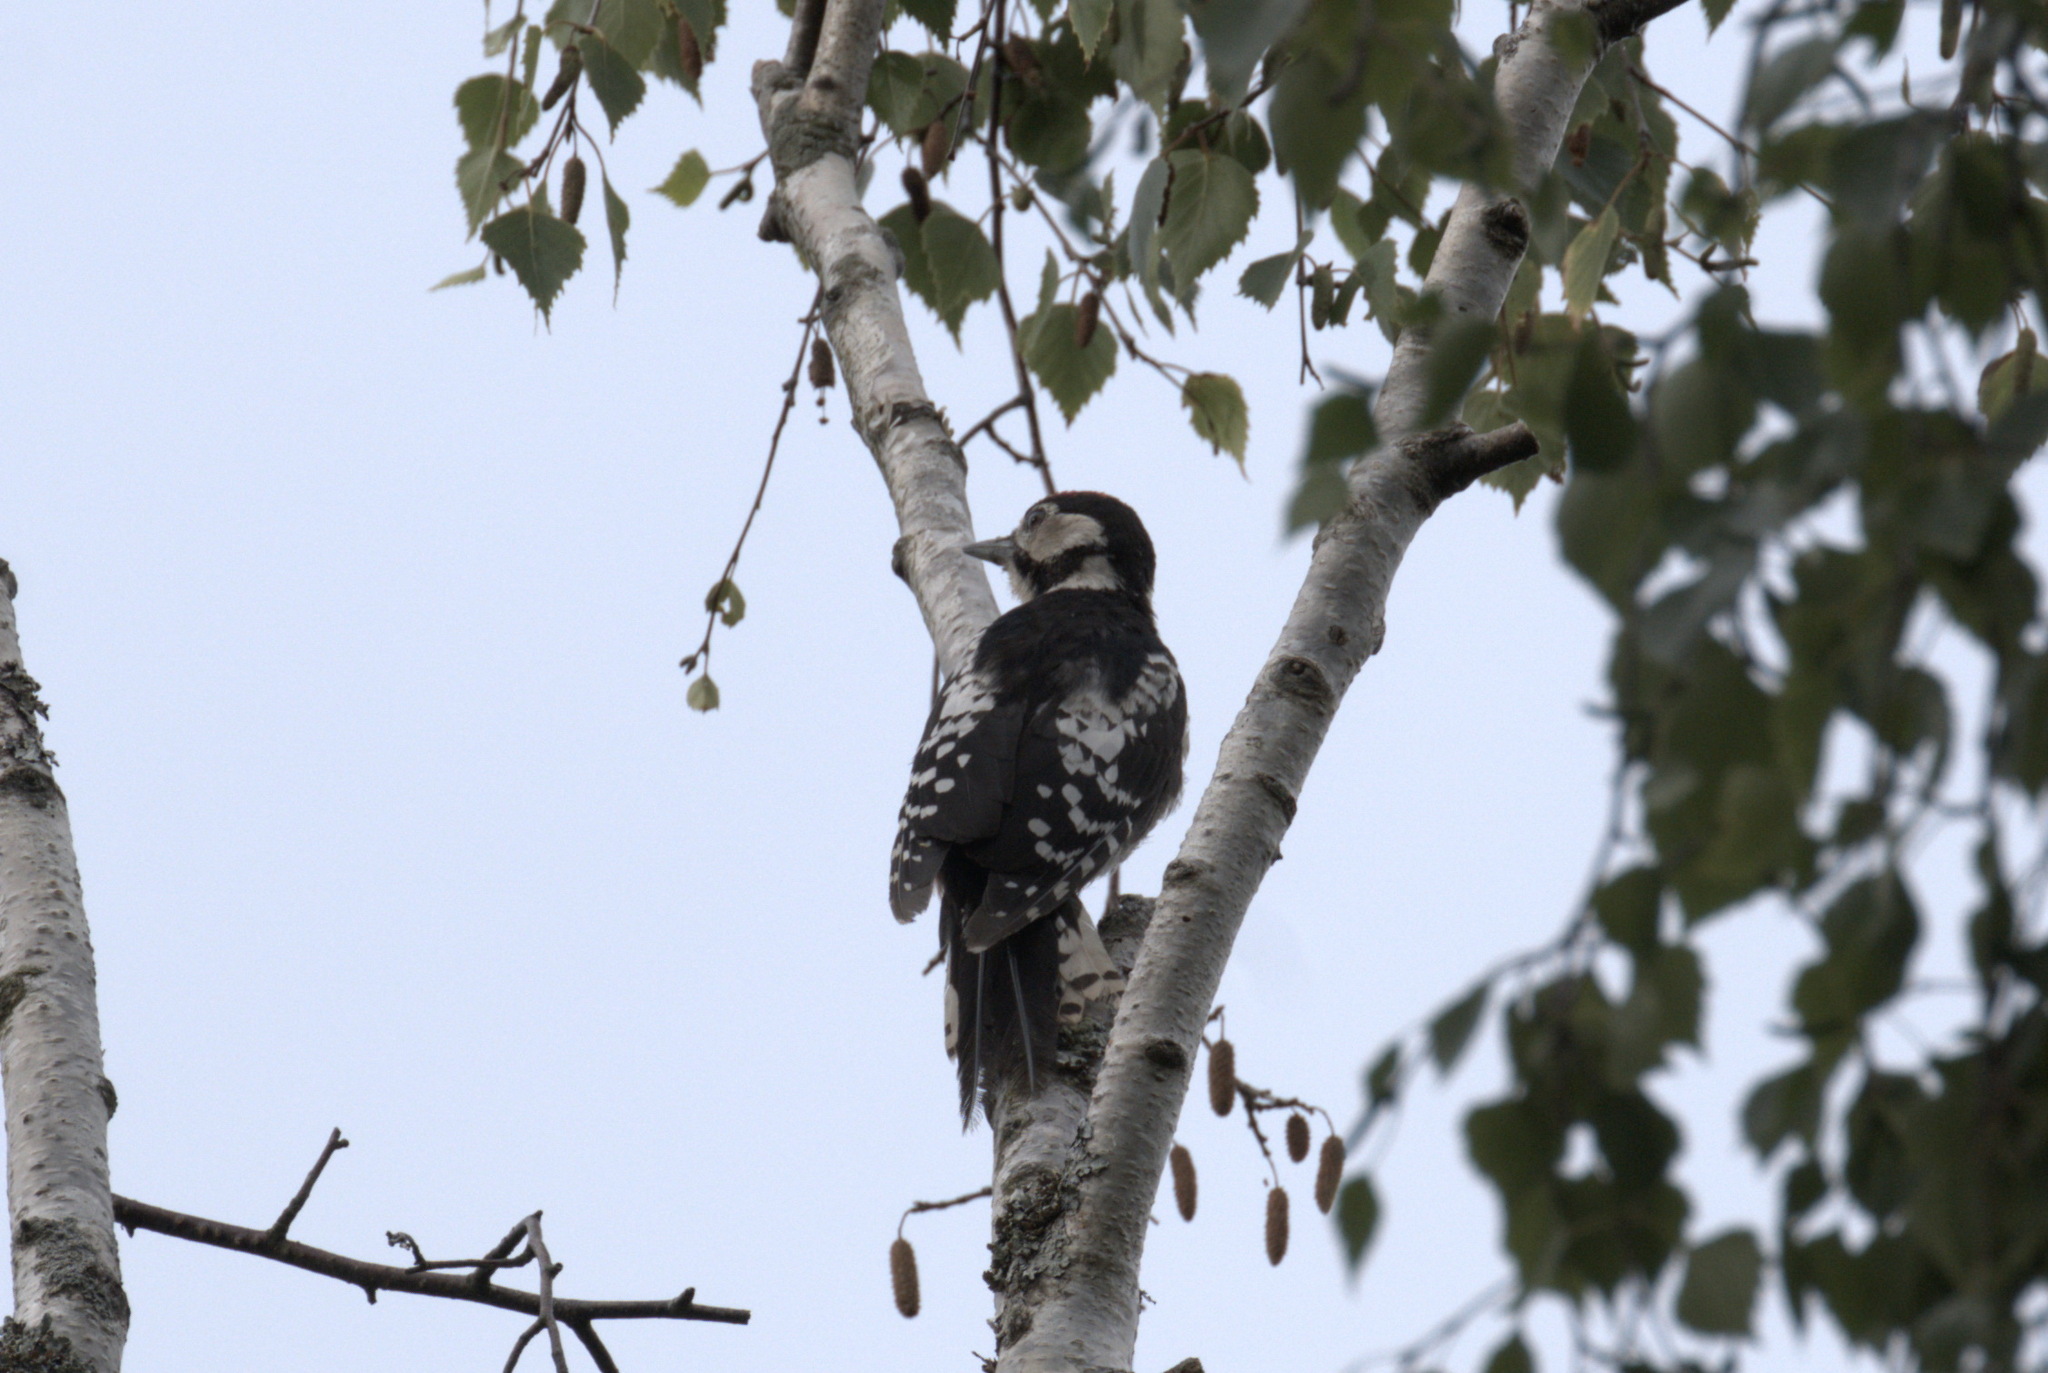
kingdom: Animalia
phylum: Chordata
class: Aves
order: Piciformes
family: Picidae
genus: Dendrocopos
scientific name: Dendrocopos major
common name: Great spotted woodpecker
